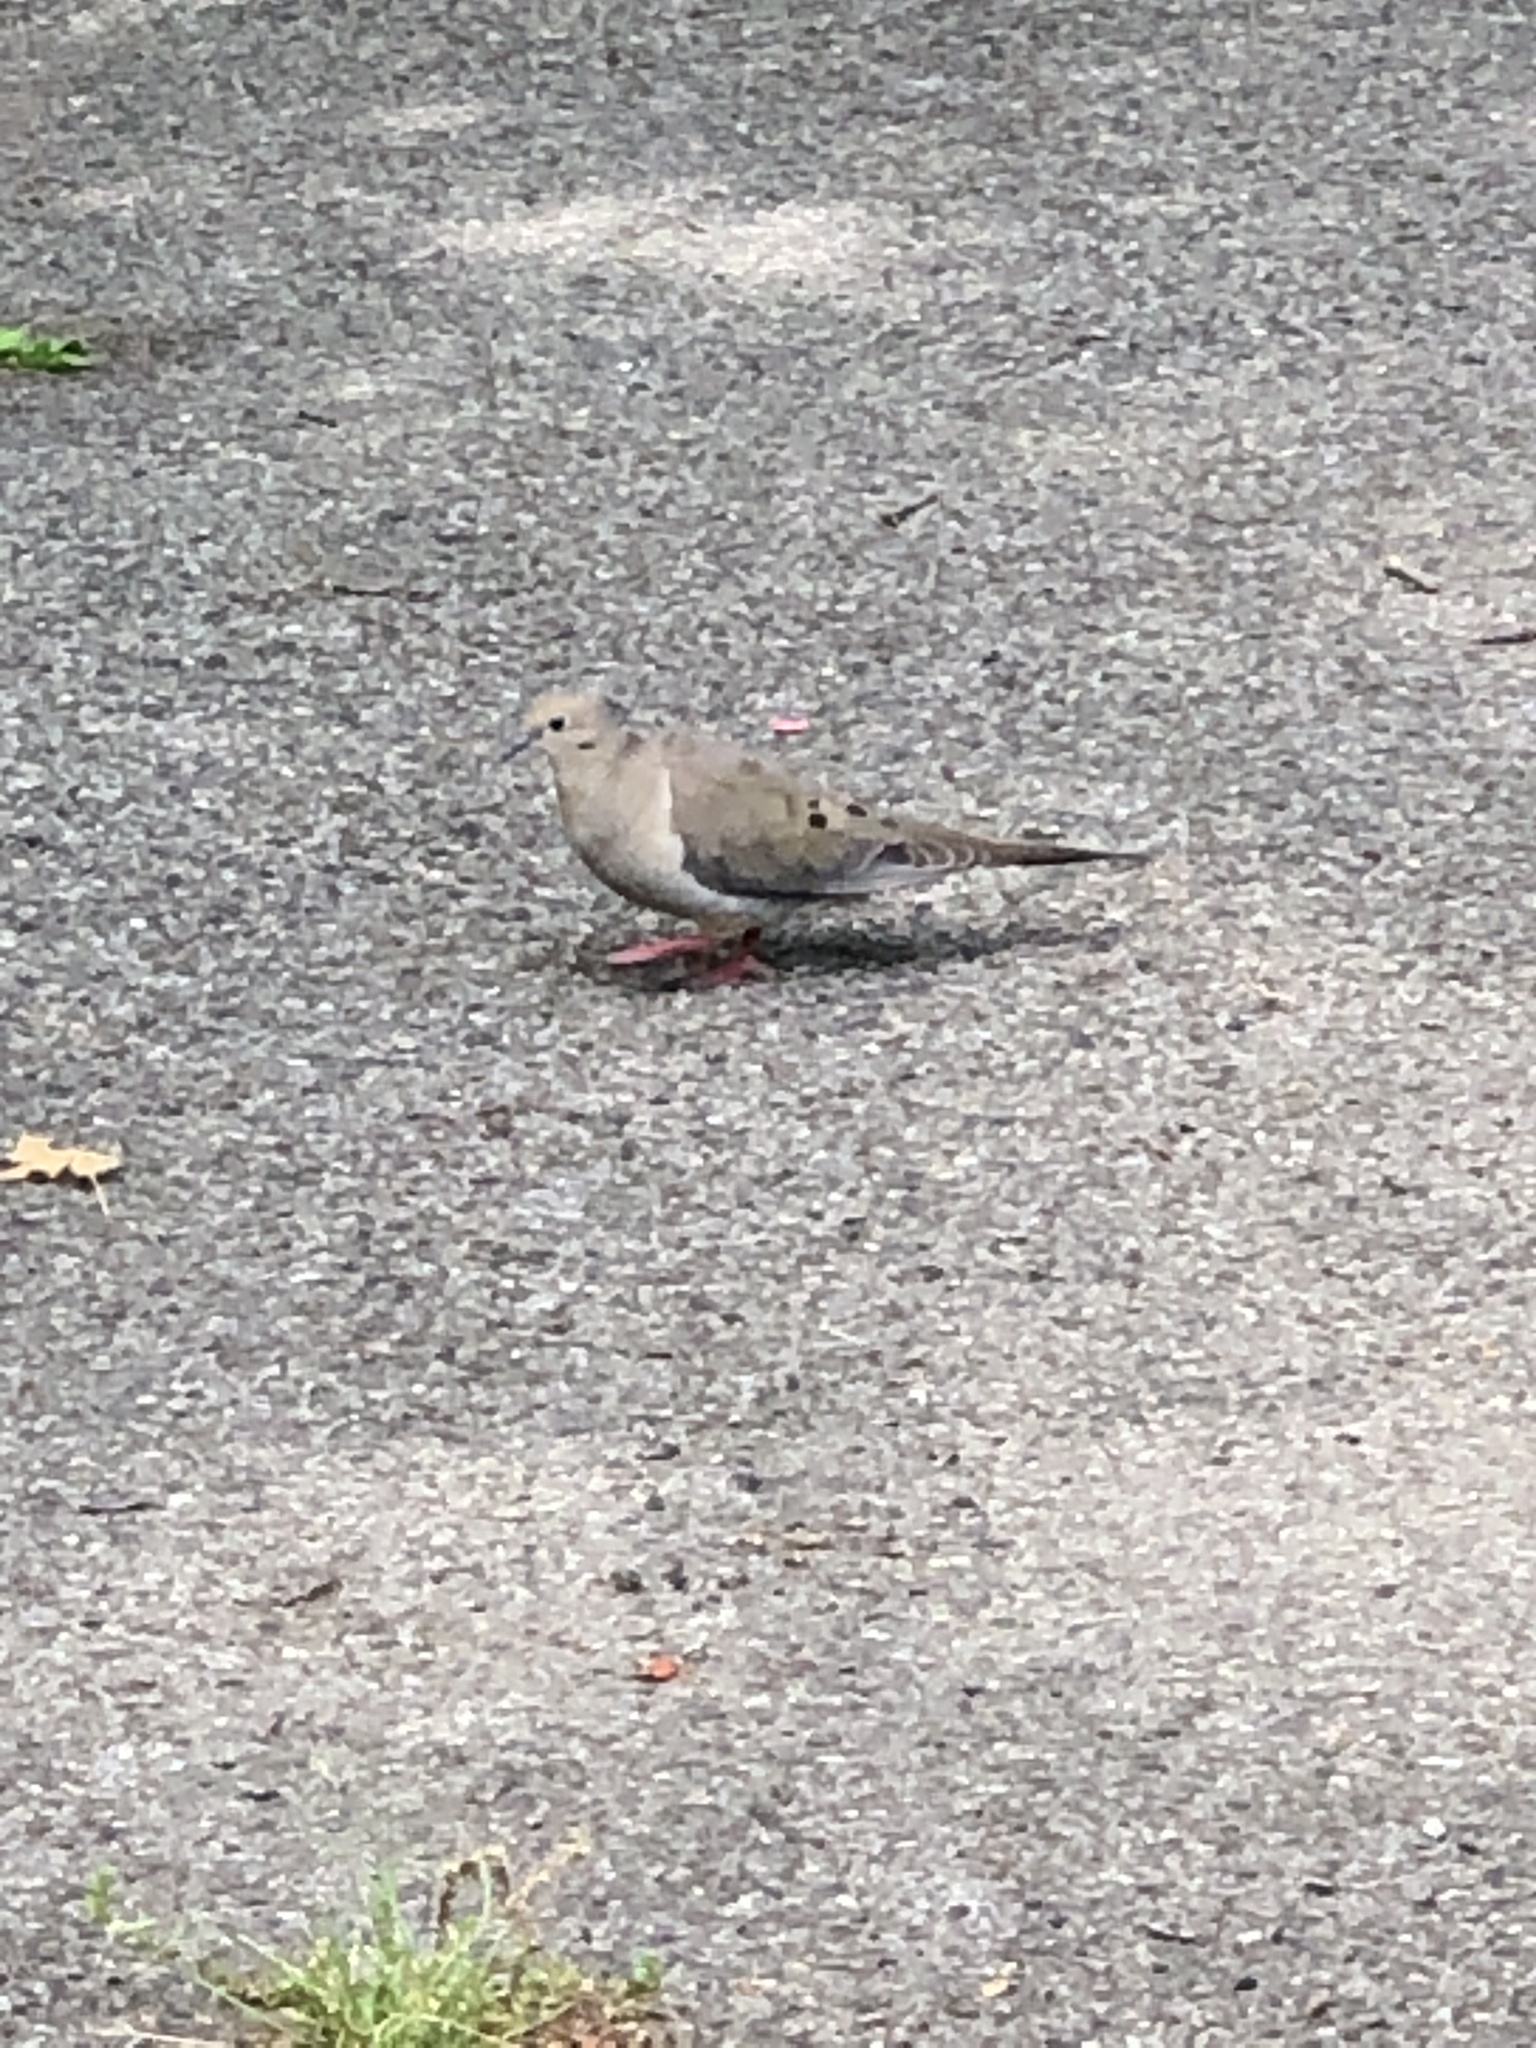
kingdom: Animalia
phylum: Chordata
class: Aves
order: Columbiformes
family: Columbidae
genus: Zenaida
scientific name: Zenaida macroura
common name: Mourning dove
